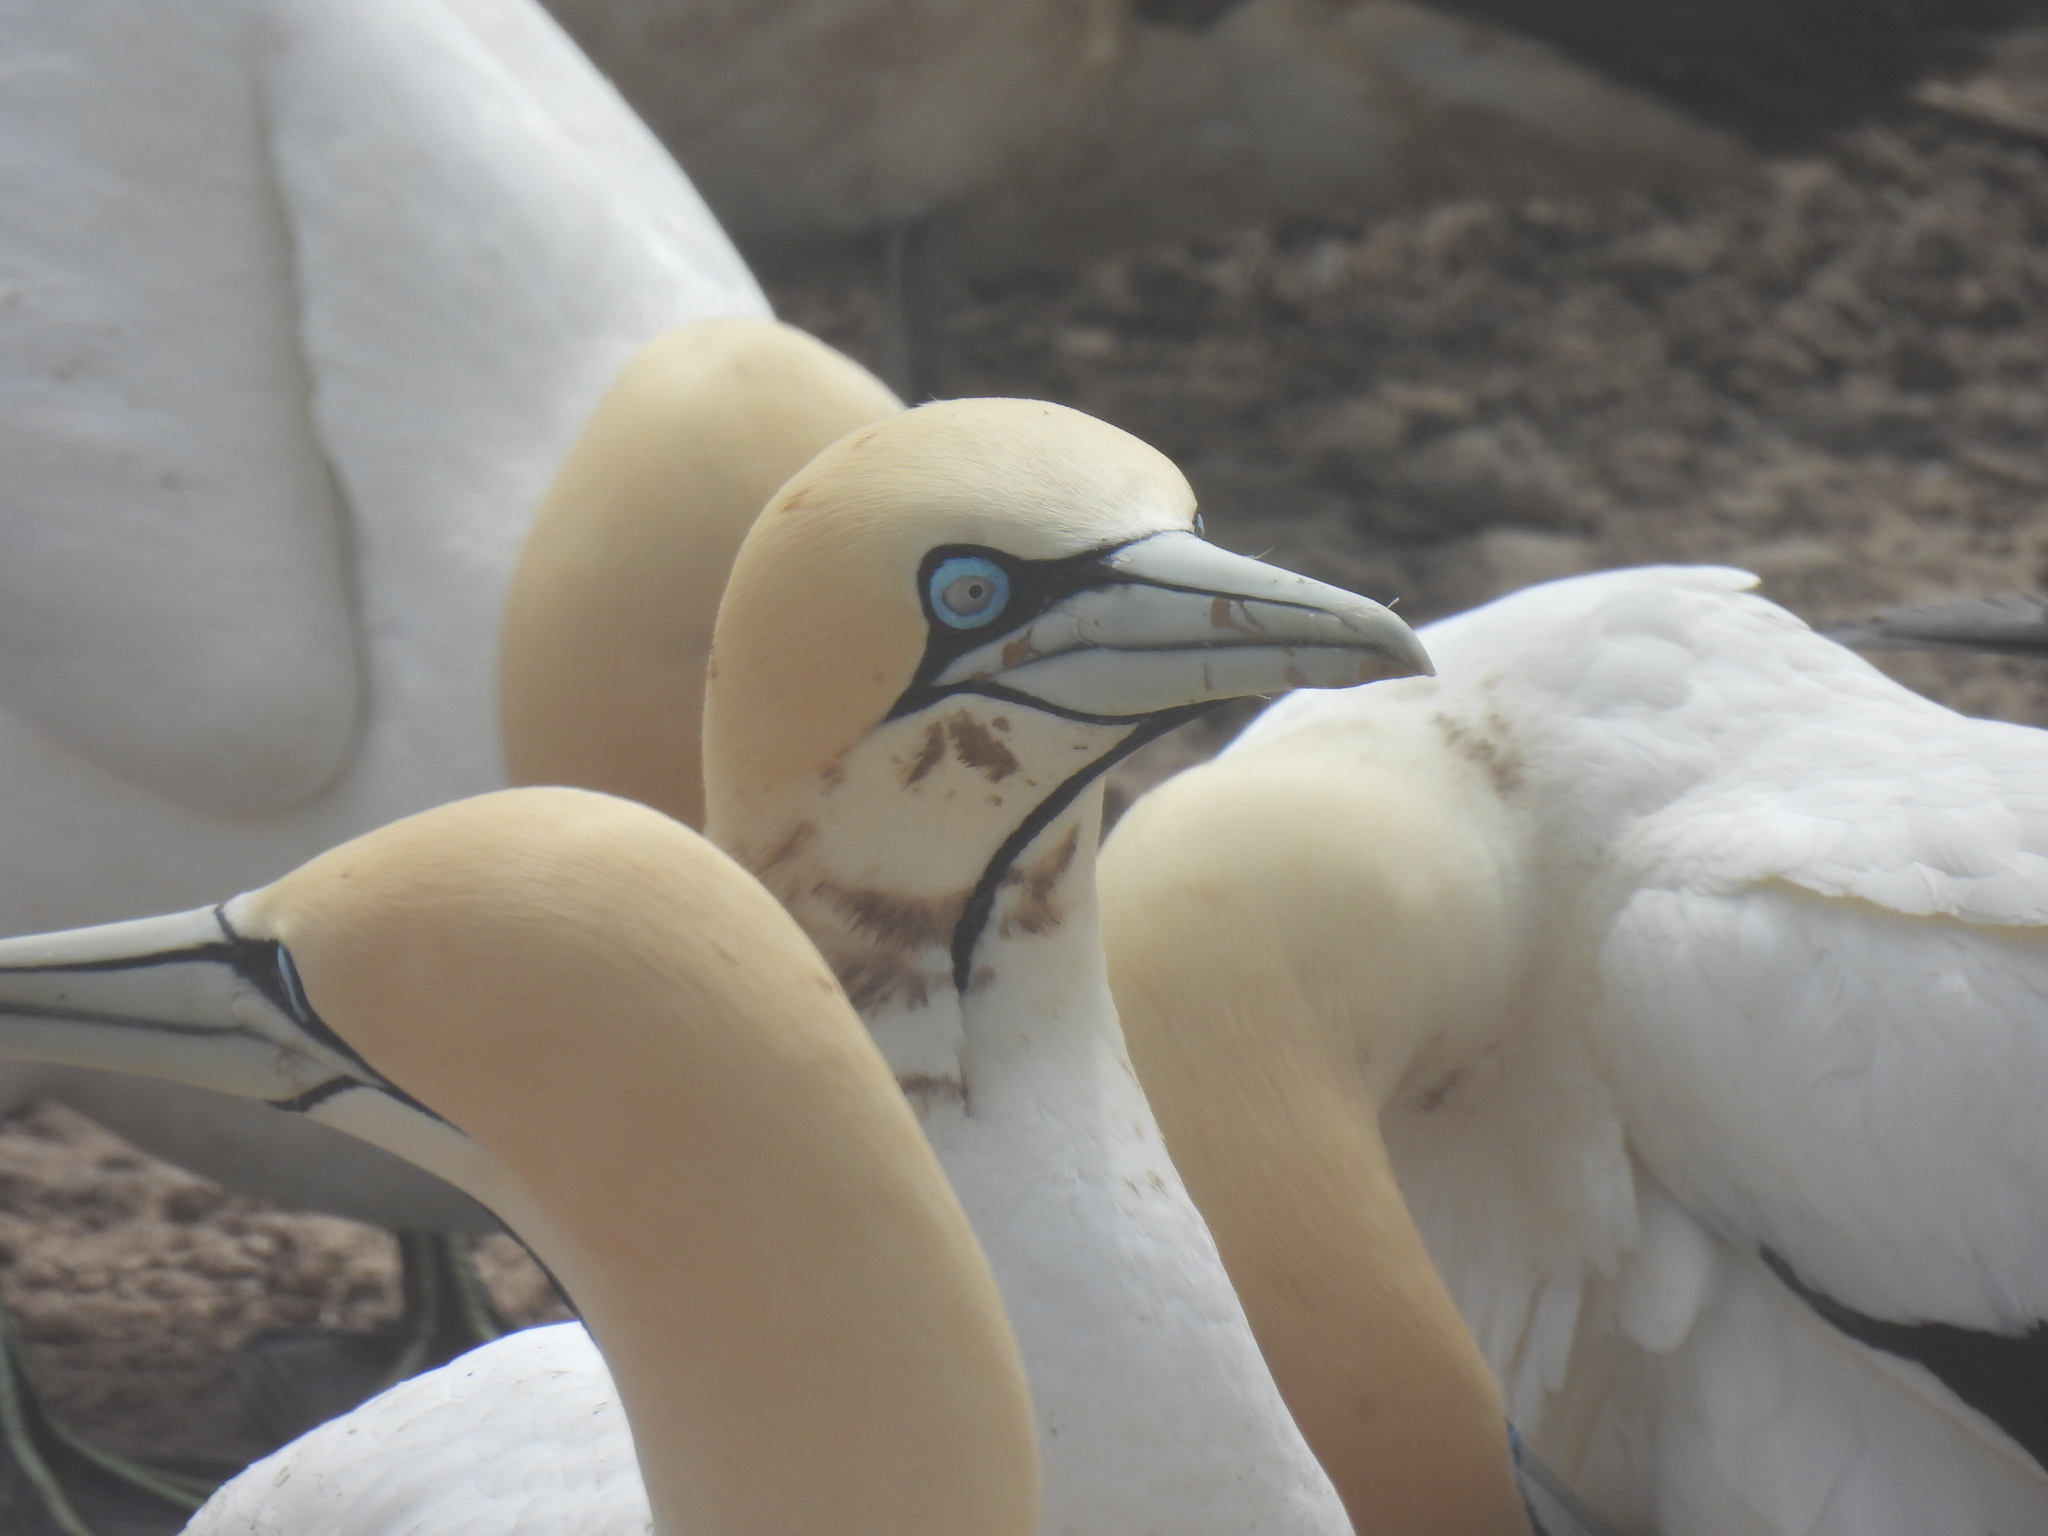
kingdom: Animalia
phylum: Chordata
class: Aves
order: Suliformes
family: Sulidae
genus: Morus
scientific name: Morus capensis
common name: Cape gannet
